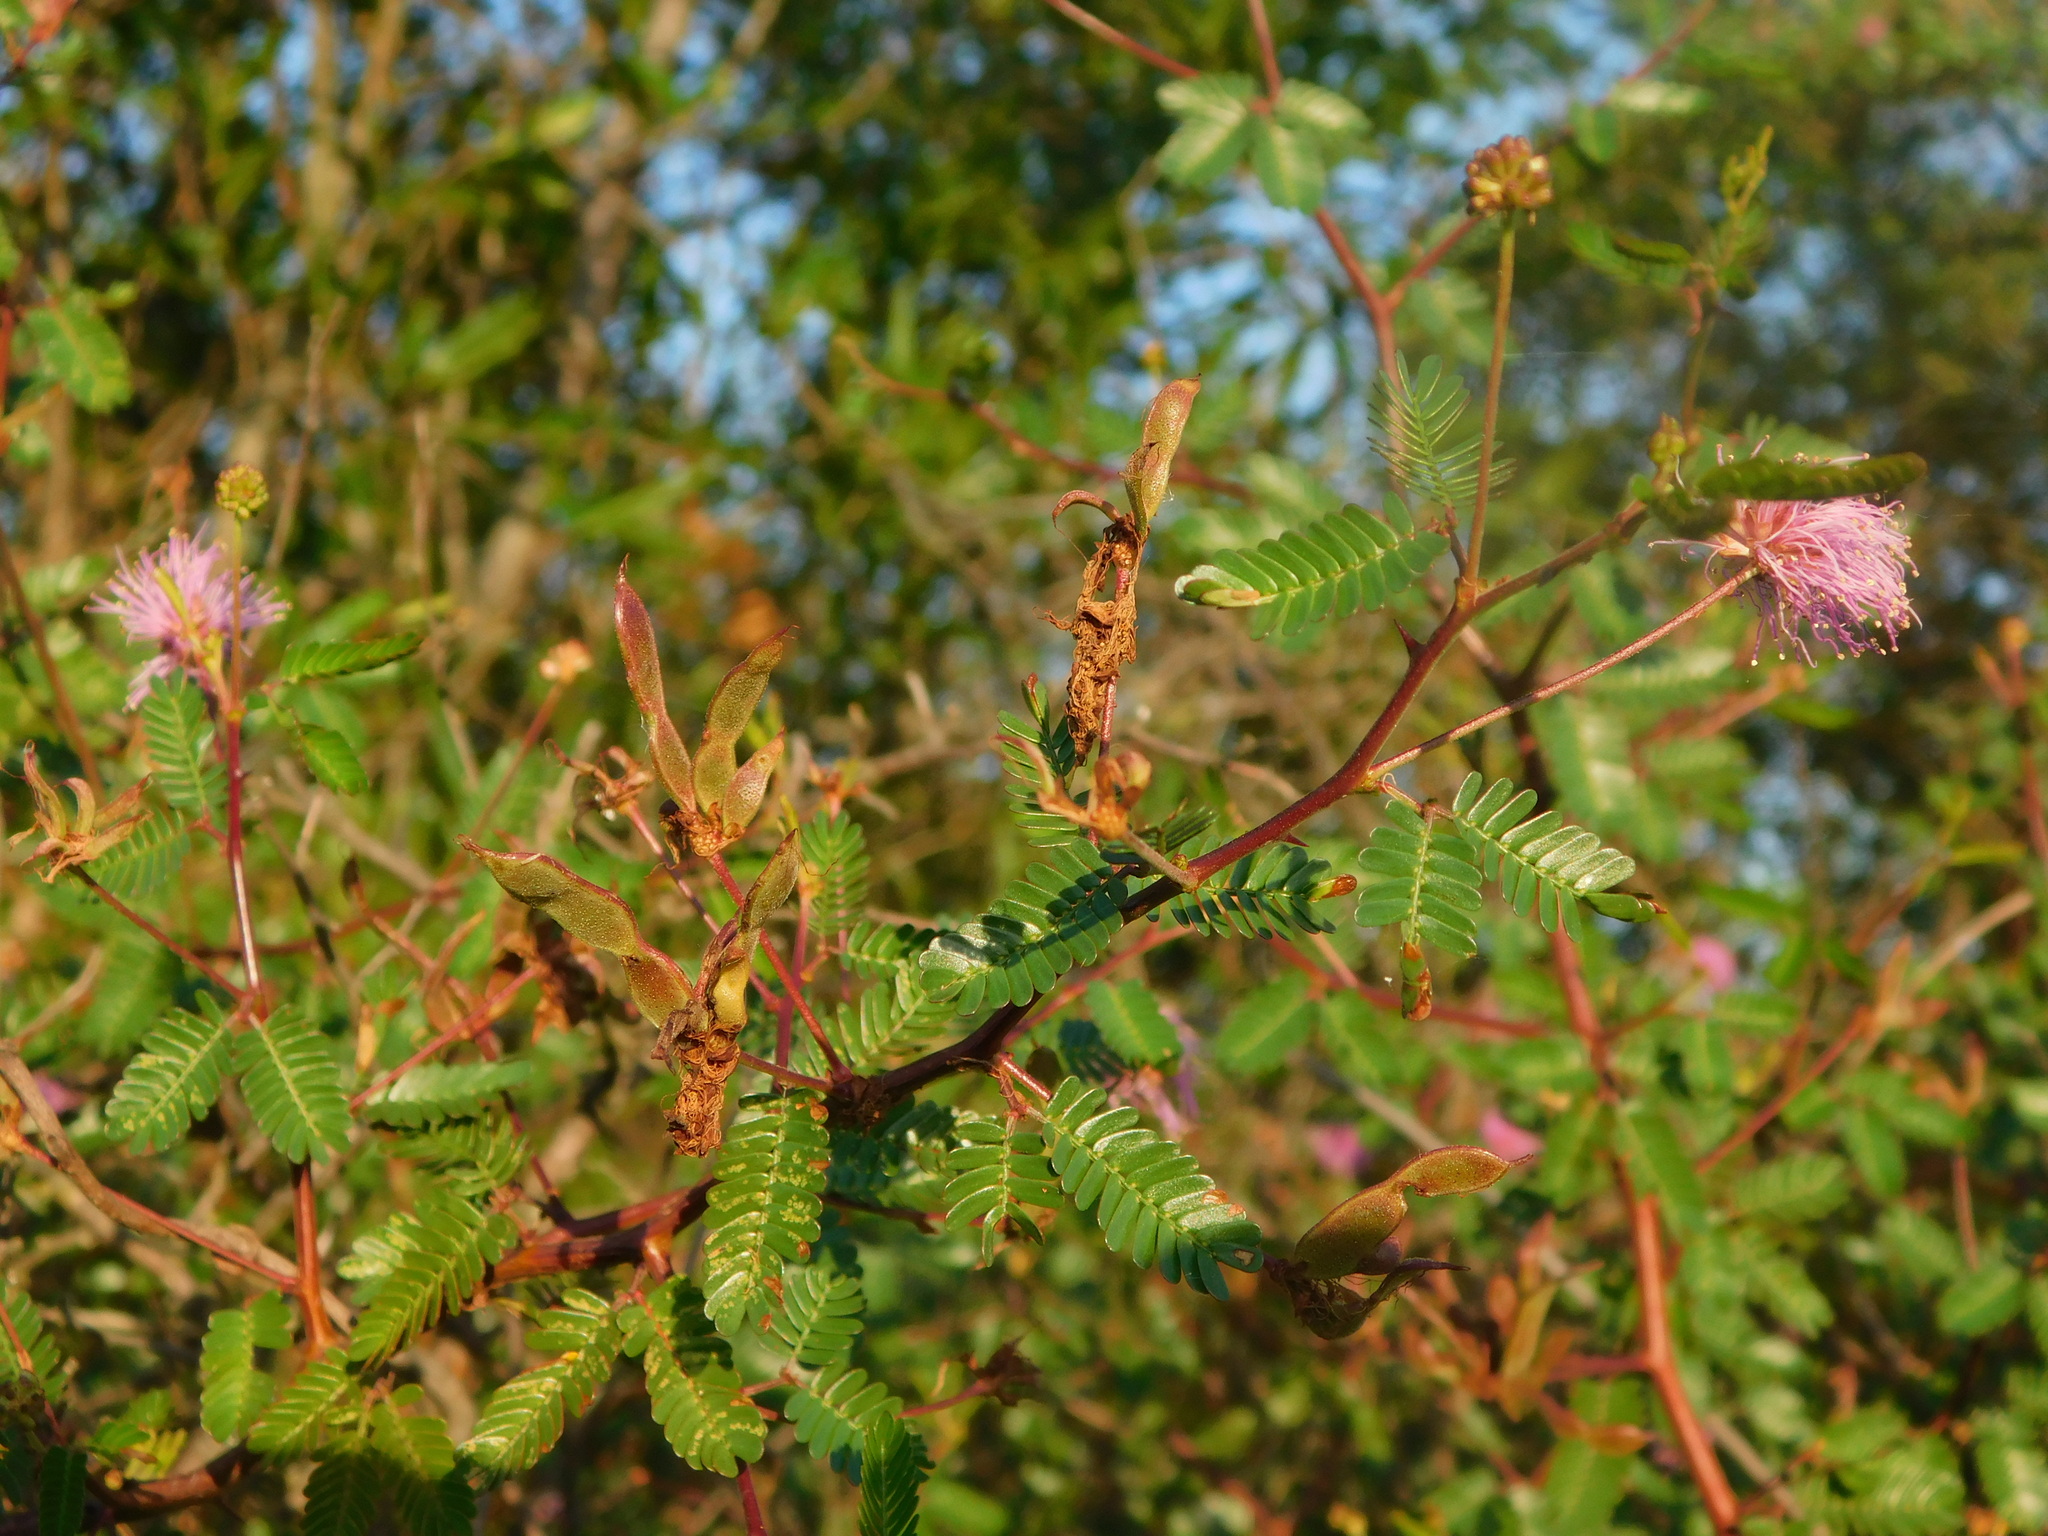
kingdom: Plantae
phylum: Tracheophyta
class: Magnoliopsida
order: Fabales
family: Fabaceae
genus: Mimosa
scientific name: Mimosa uraguensis
